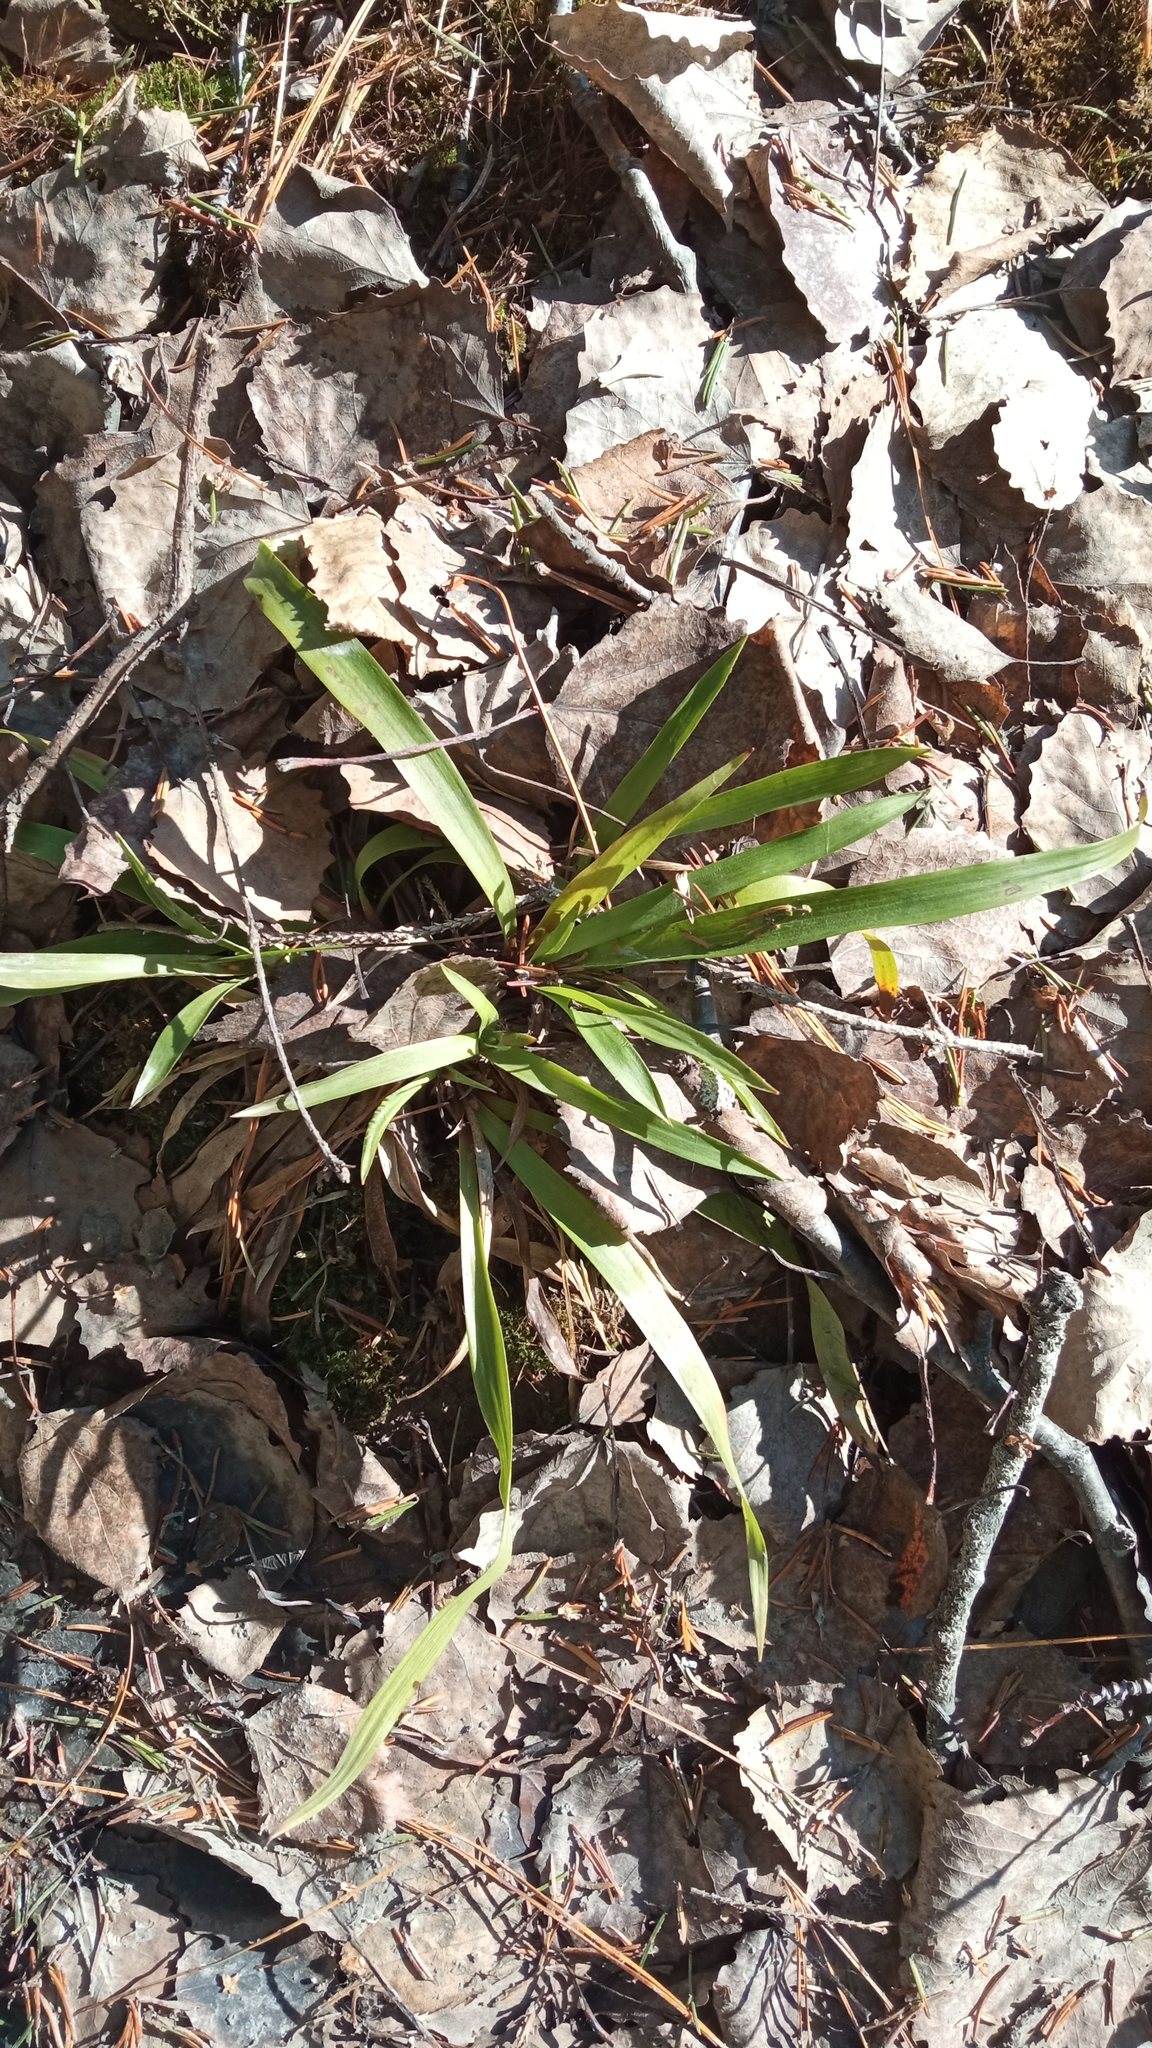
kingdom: Plantae
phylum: Tracheophyta
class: Liliopsida
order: Poales
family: Juncaceae
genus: Luzula
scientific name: Luzula pilosa
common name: Hairy wood-rush
